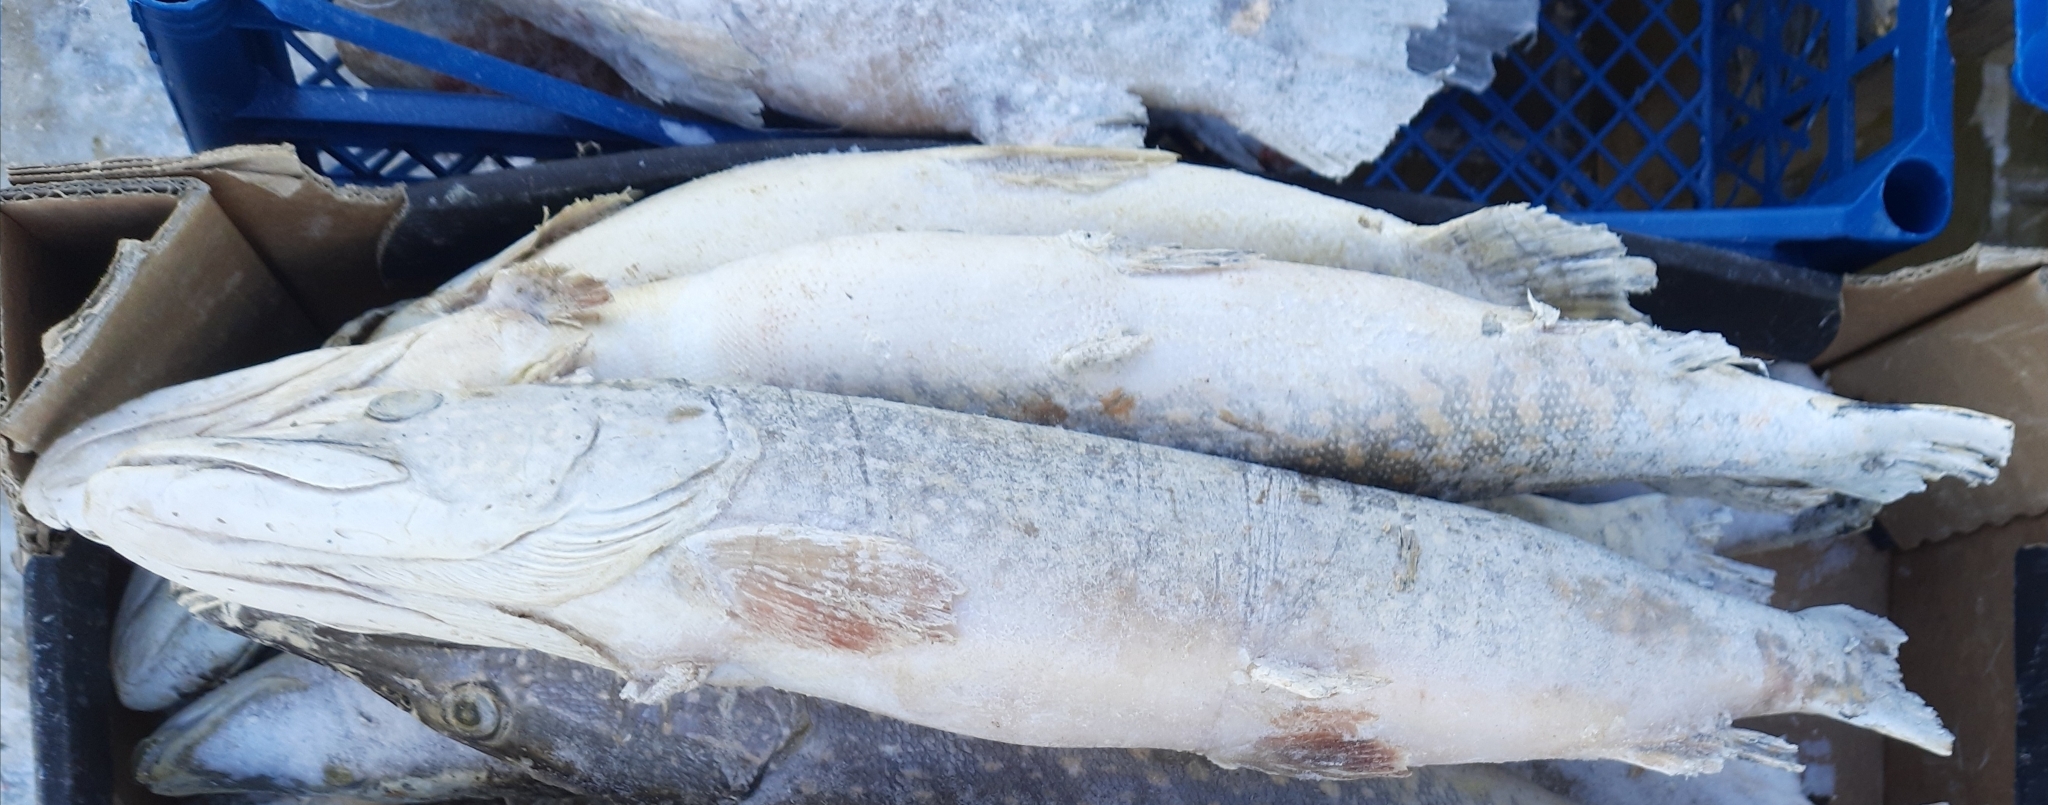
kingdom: Animalia
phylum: Chordata
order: Esociformes
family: Esocidae
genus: Esox
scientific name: Esox lucius
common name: Northern pike
